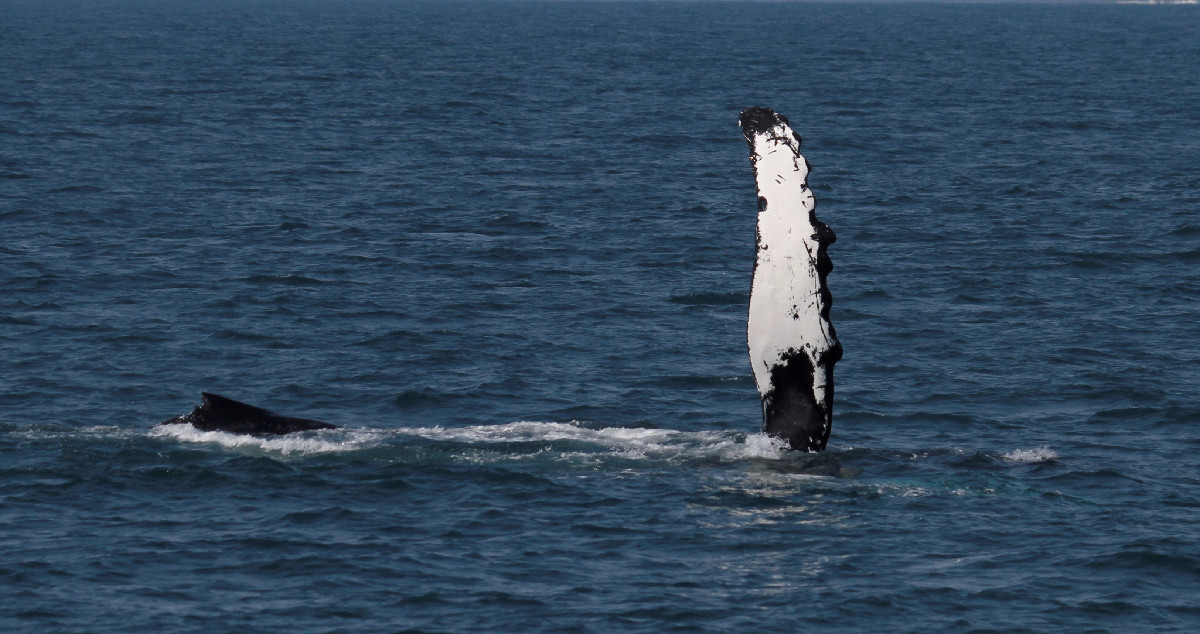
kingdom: Animalia
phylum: Chordata
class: Mammalia
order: Cetacea
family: Balaenopteridae
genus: Megaptera
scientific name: Megaptera novaeangliae
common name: Humpback whale
